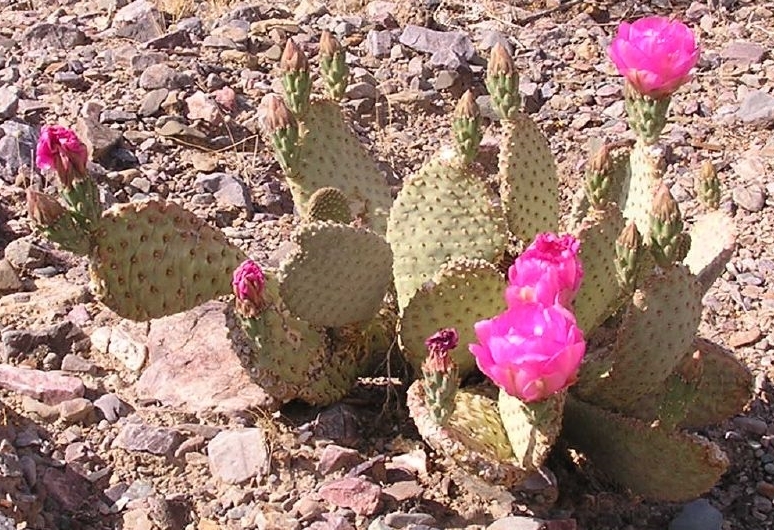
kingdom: Plantae
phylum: Tracheophyta
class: Magnoliopsida
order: Caryophyllales
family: Cactaceae
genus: Opuntia
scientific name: Opuntia basilaris
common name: Beavertail prickly-pear
